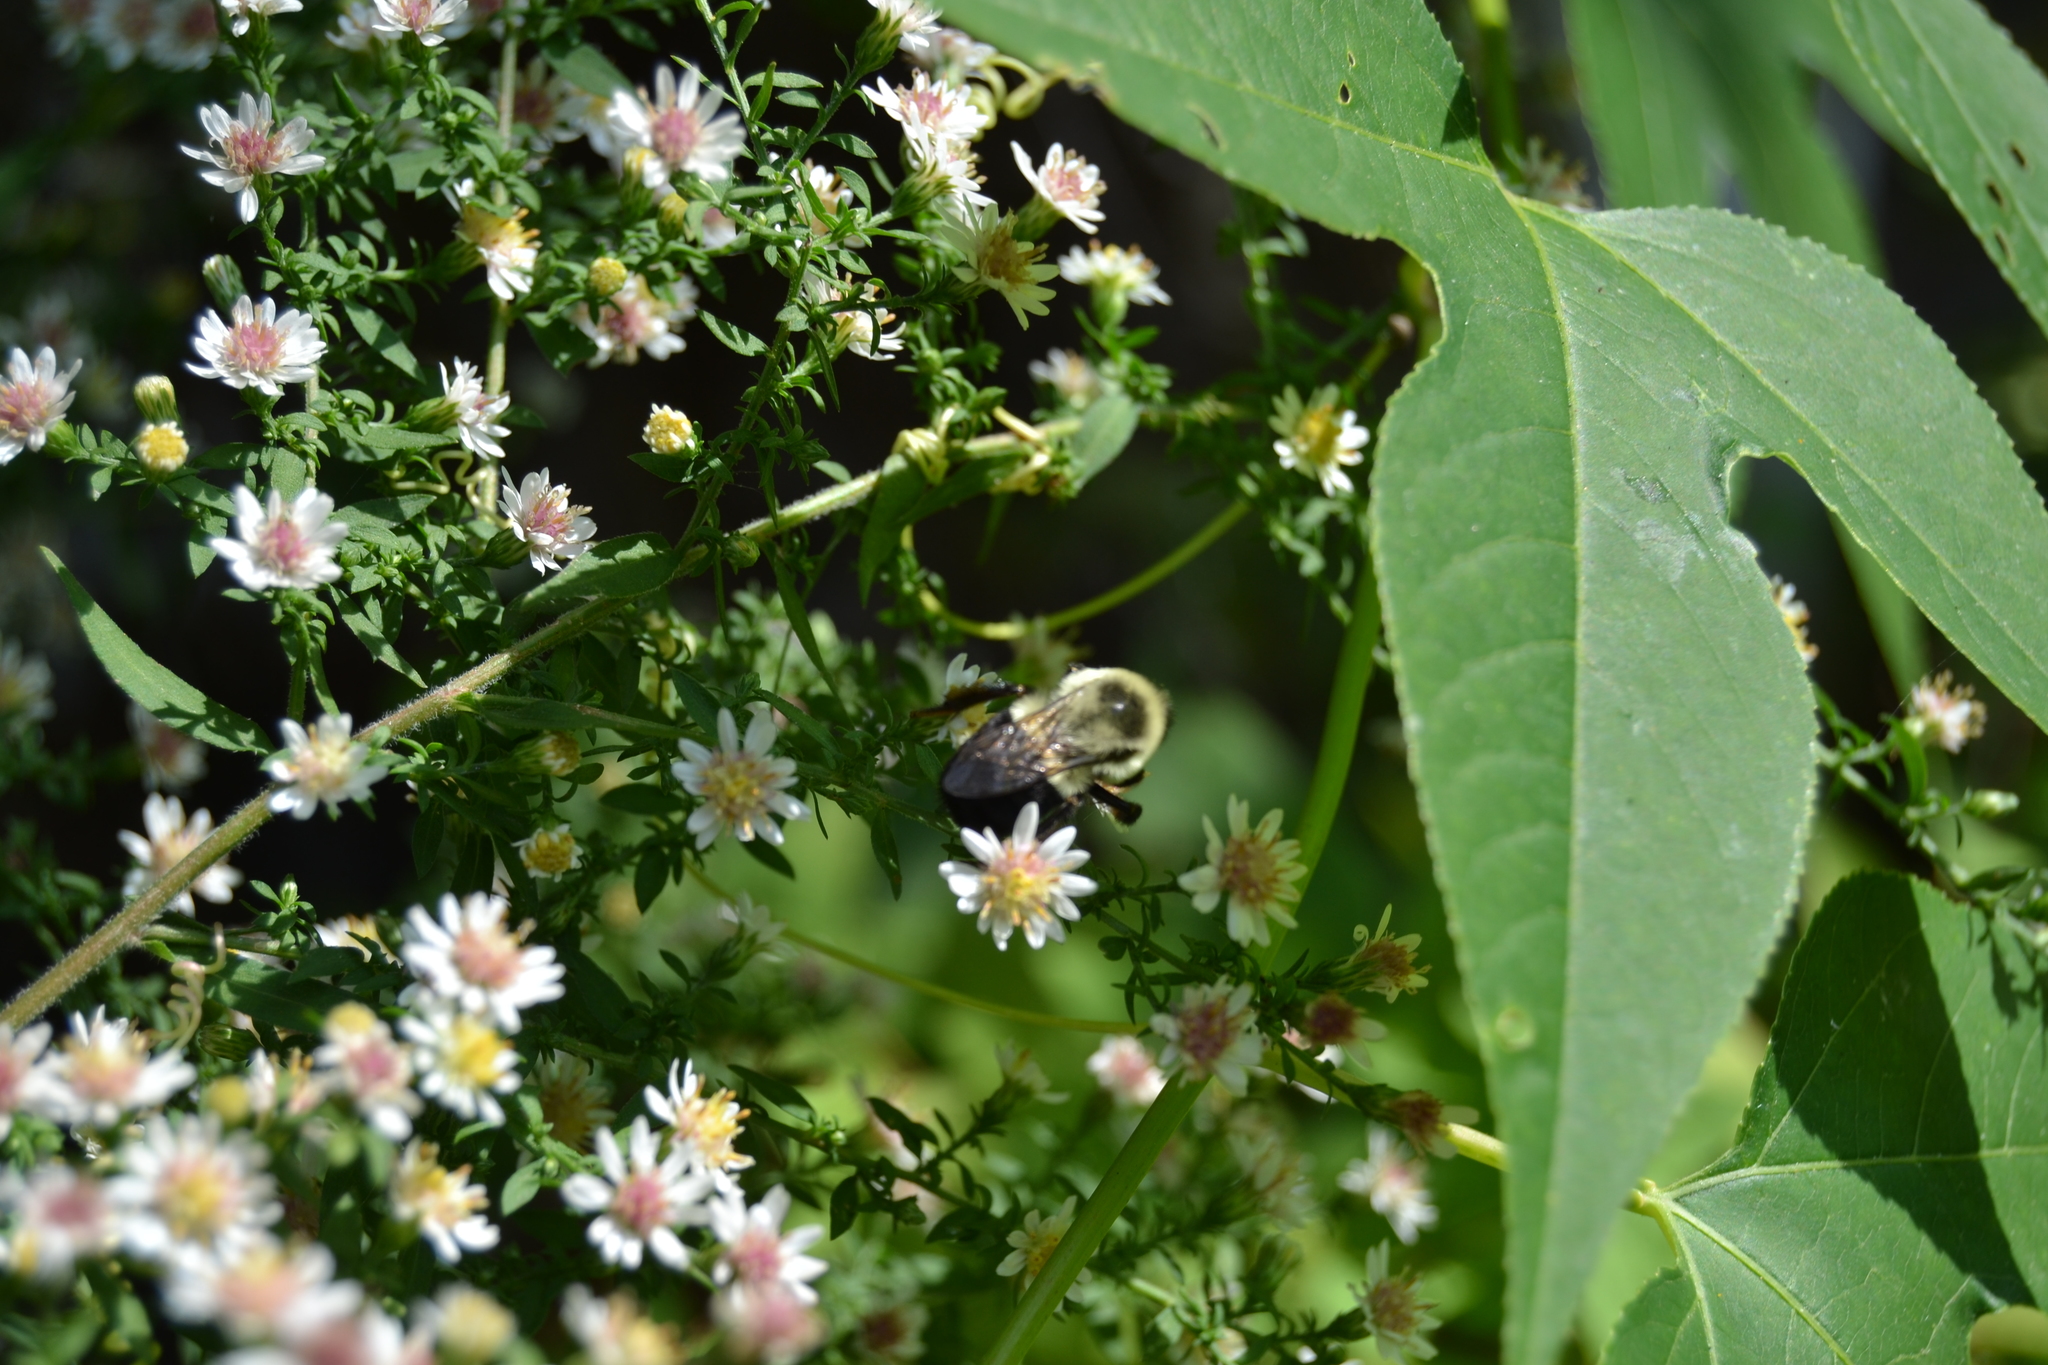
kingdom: Animalia
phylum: Arthropoda
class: Insecta
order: Hymenoptera
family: Apidae
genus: Bombus
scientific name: Bombus impatiens
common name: Common eastern bumble bee
